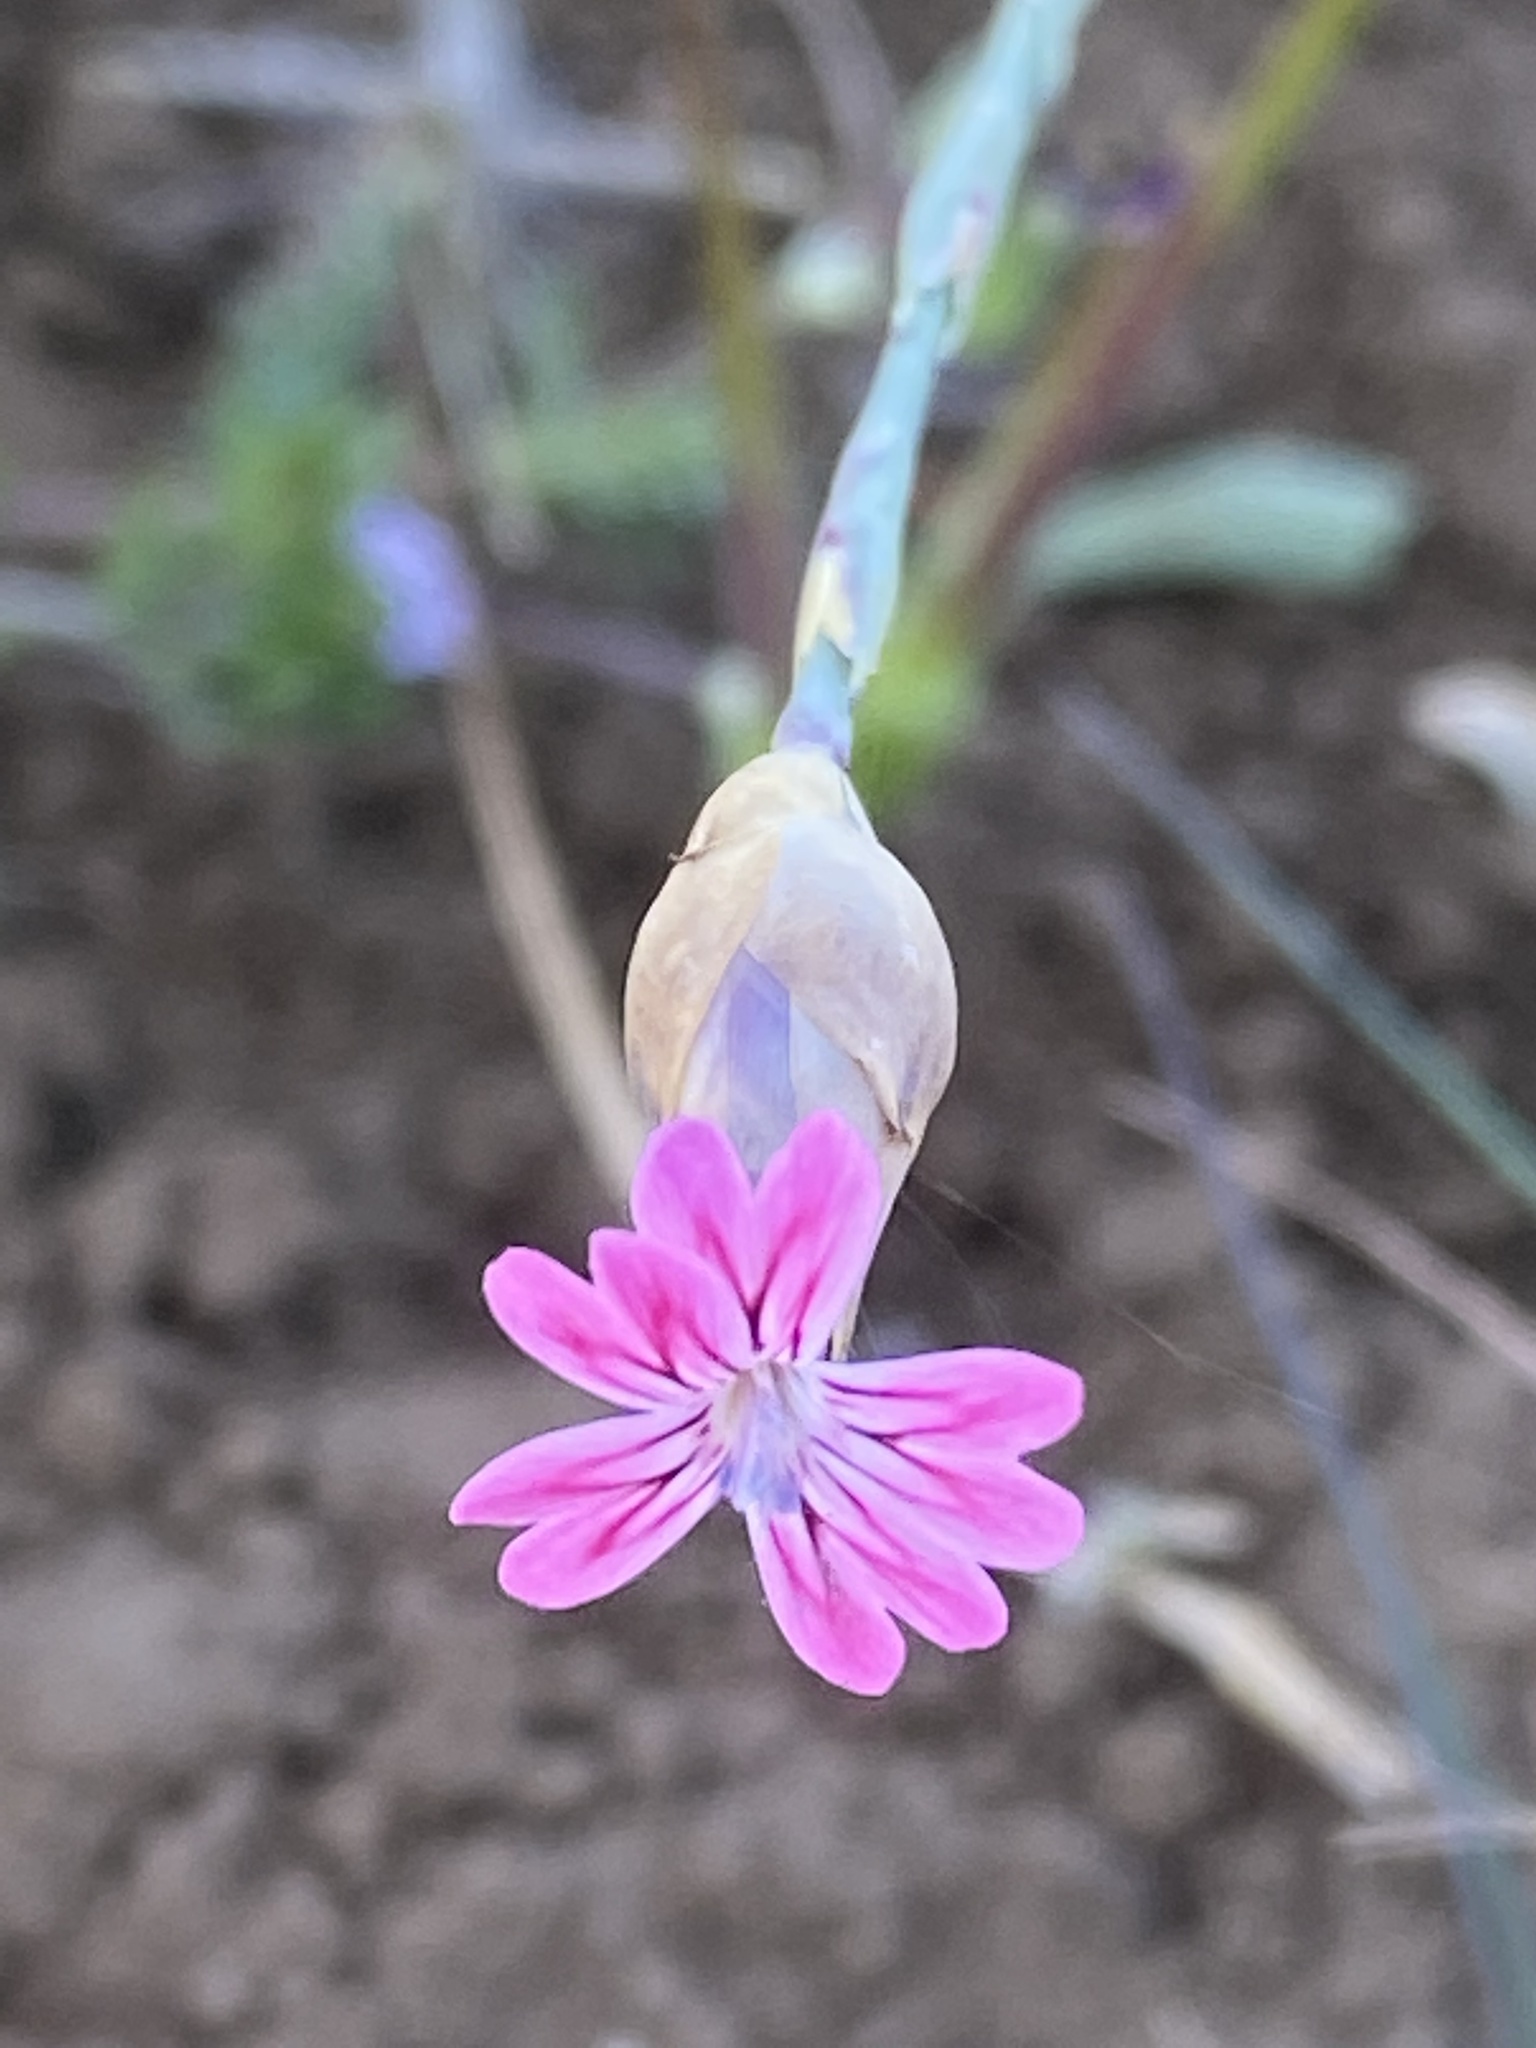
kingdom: Plantae
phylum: Tracheophyta
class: Magnoliopsida
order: Caryophyllales
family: Caryophyllaceae
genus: Petrorhagia
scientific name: Petrorhagia dubia
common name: Hairypink
